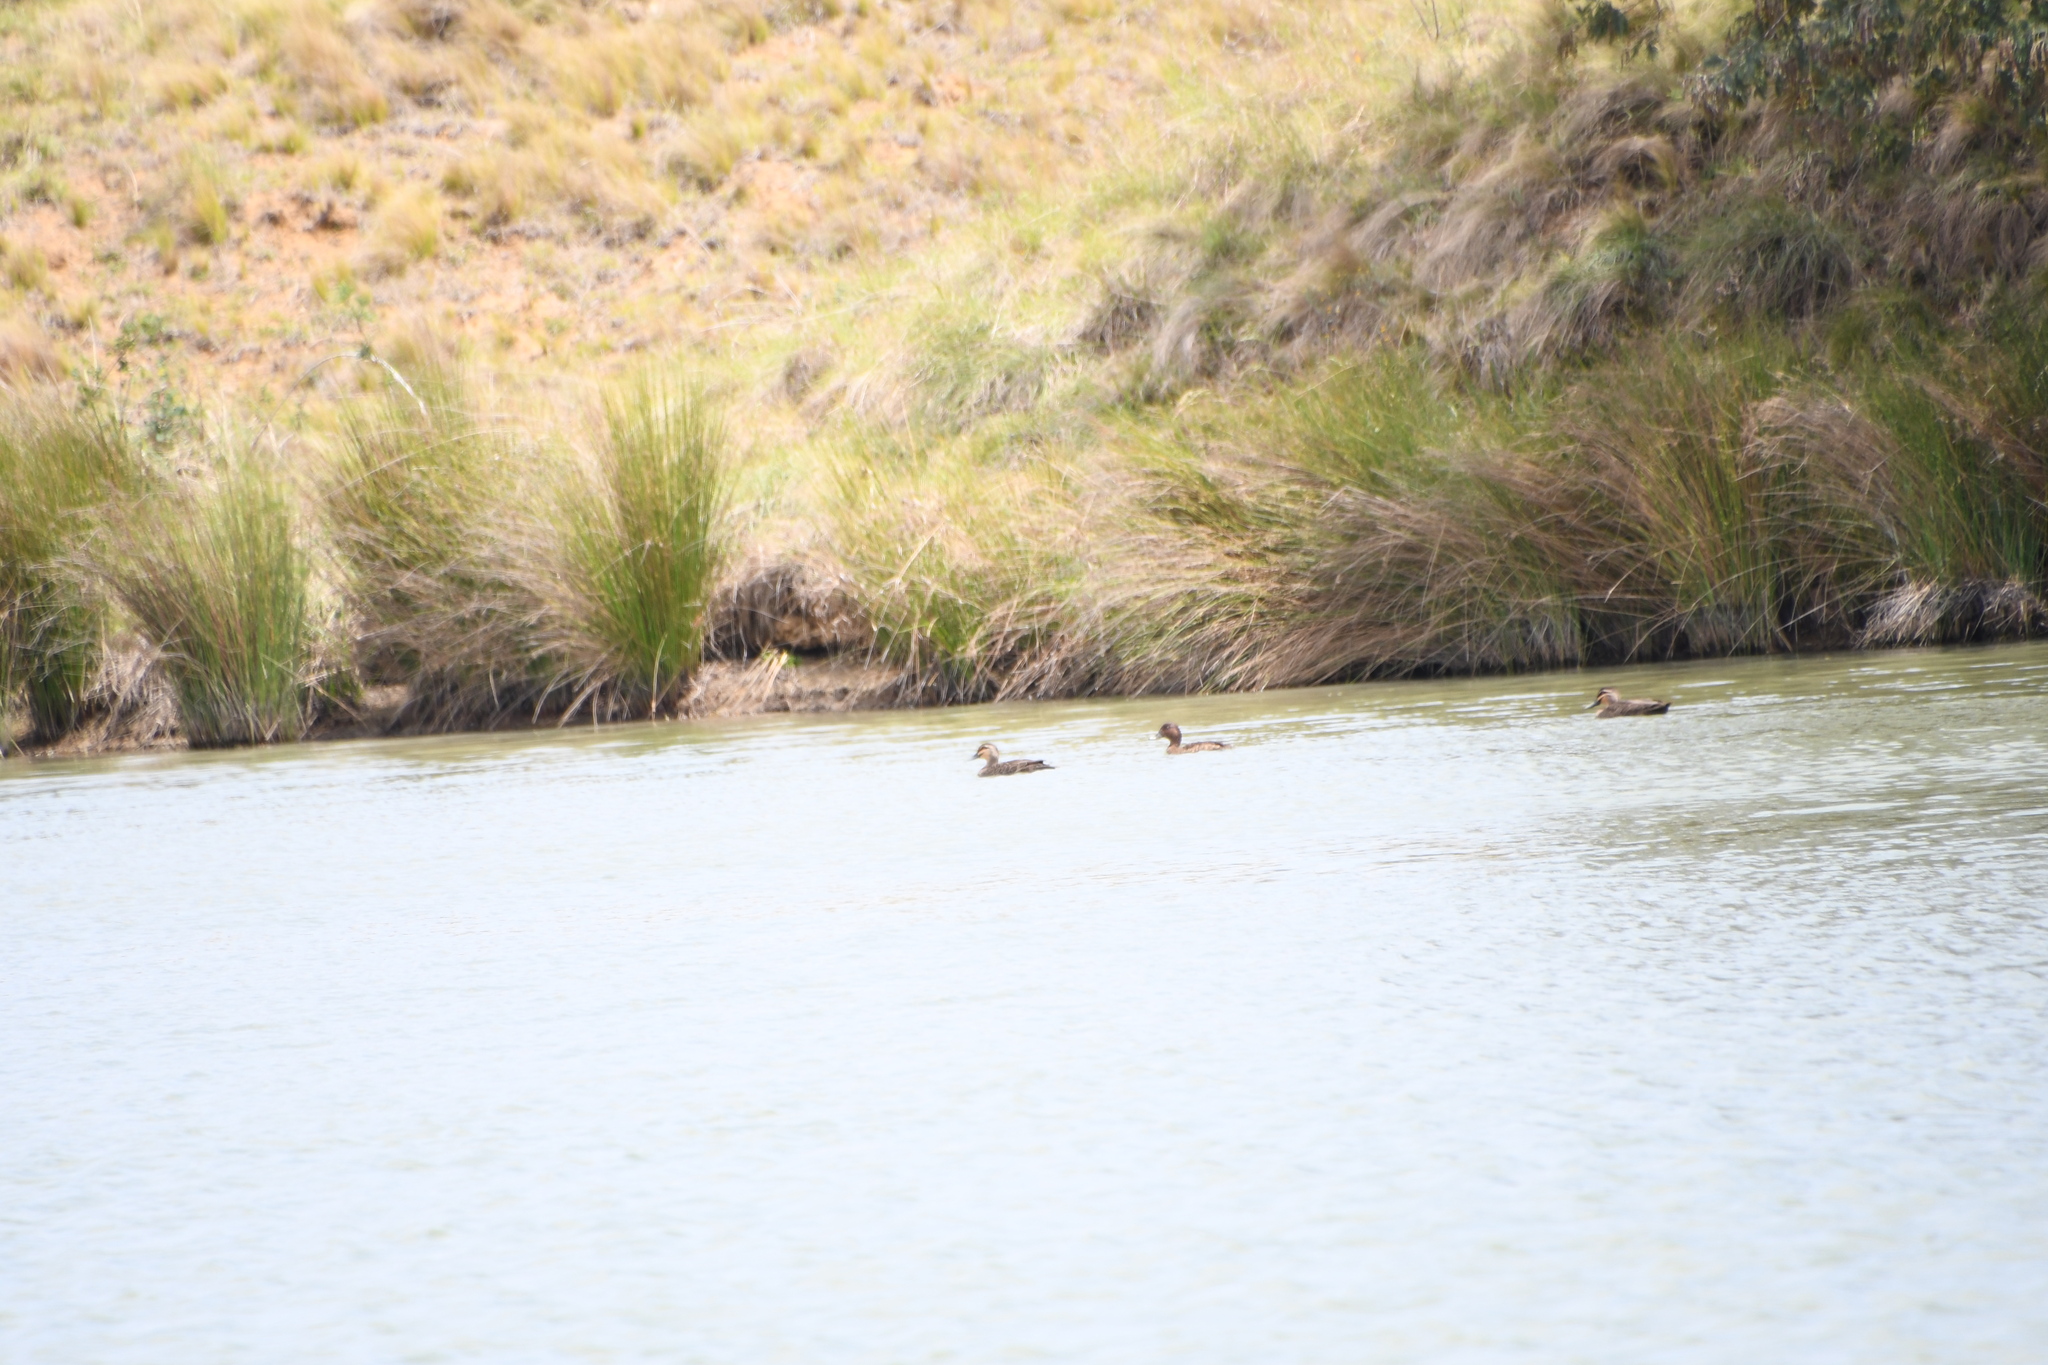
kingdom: Animalia
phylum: Chordata
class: Aves
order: Anseriformes
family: Anatidae
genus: Anas
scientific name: Anas superciliosa
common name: Pacific black duck
